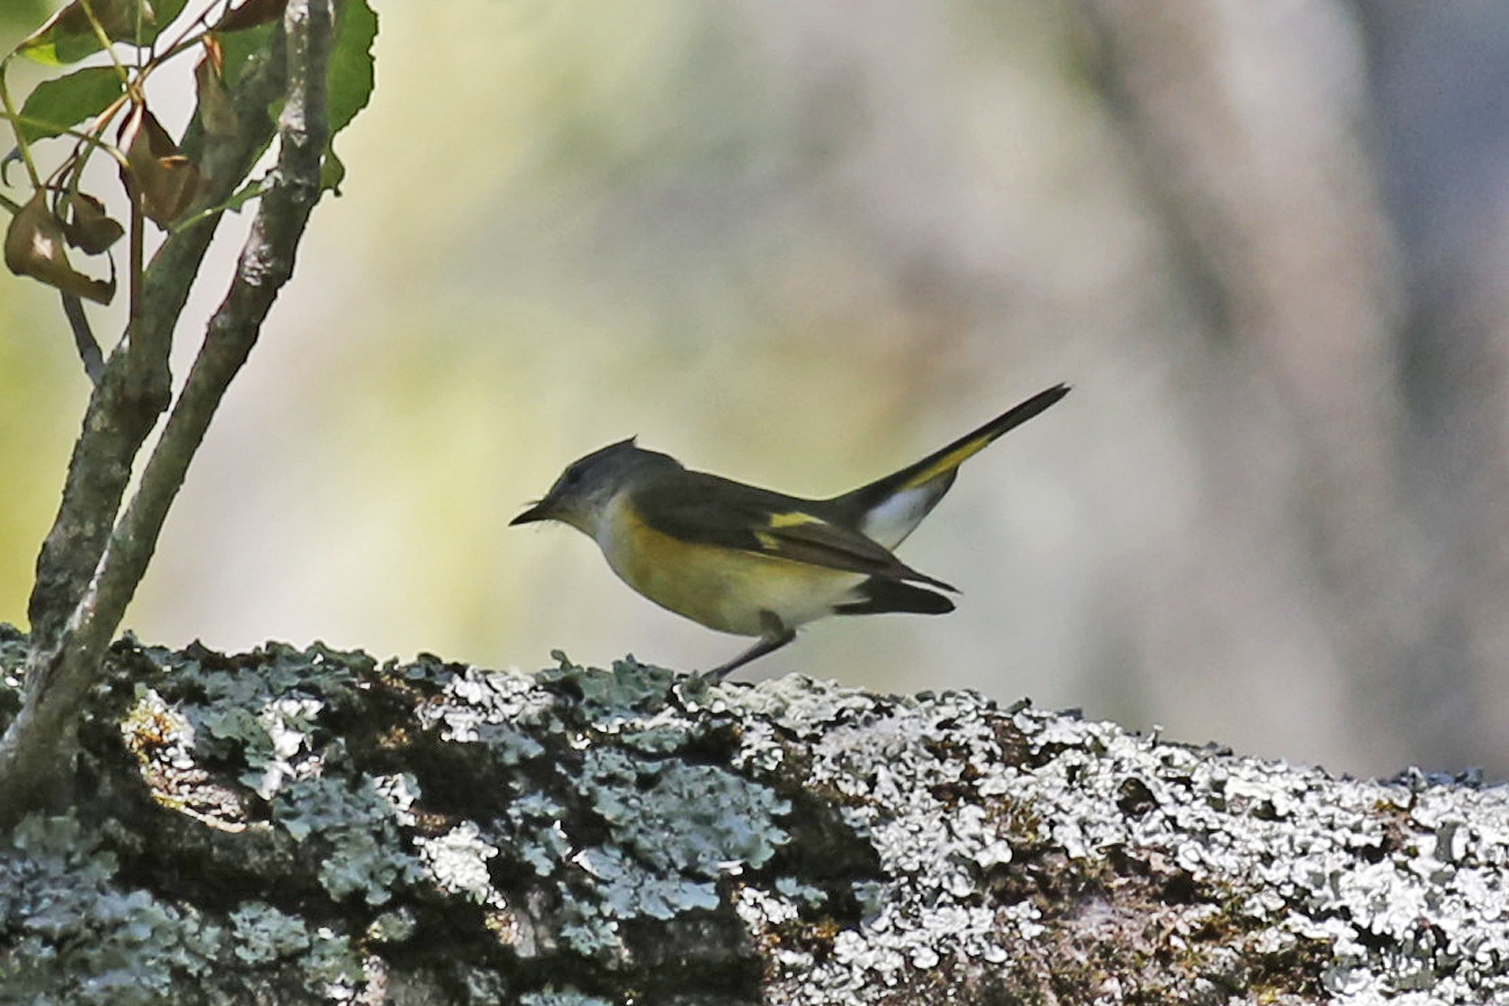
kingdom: Animalia
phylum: Chordata
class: Aves
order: Passeriformes
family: Parulidae
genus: Setophaga
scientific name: Setophaga ruticilla
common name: American redstart
